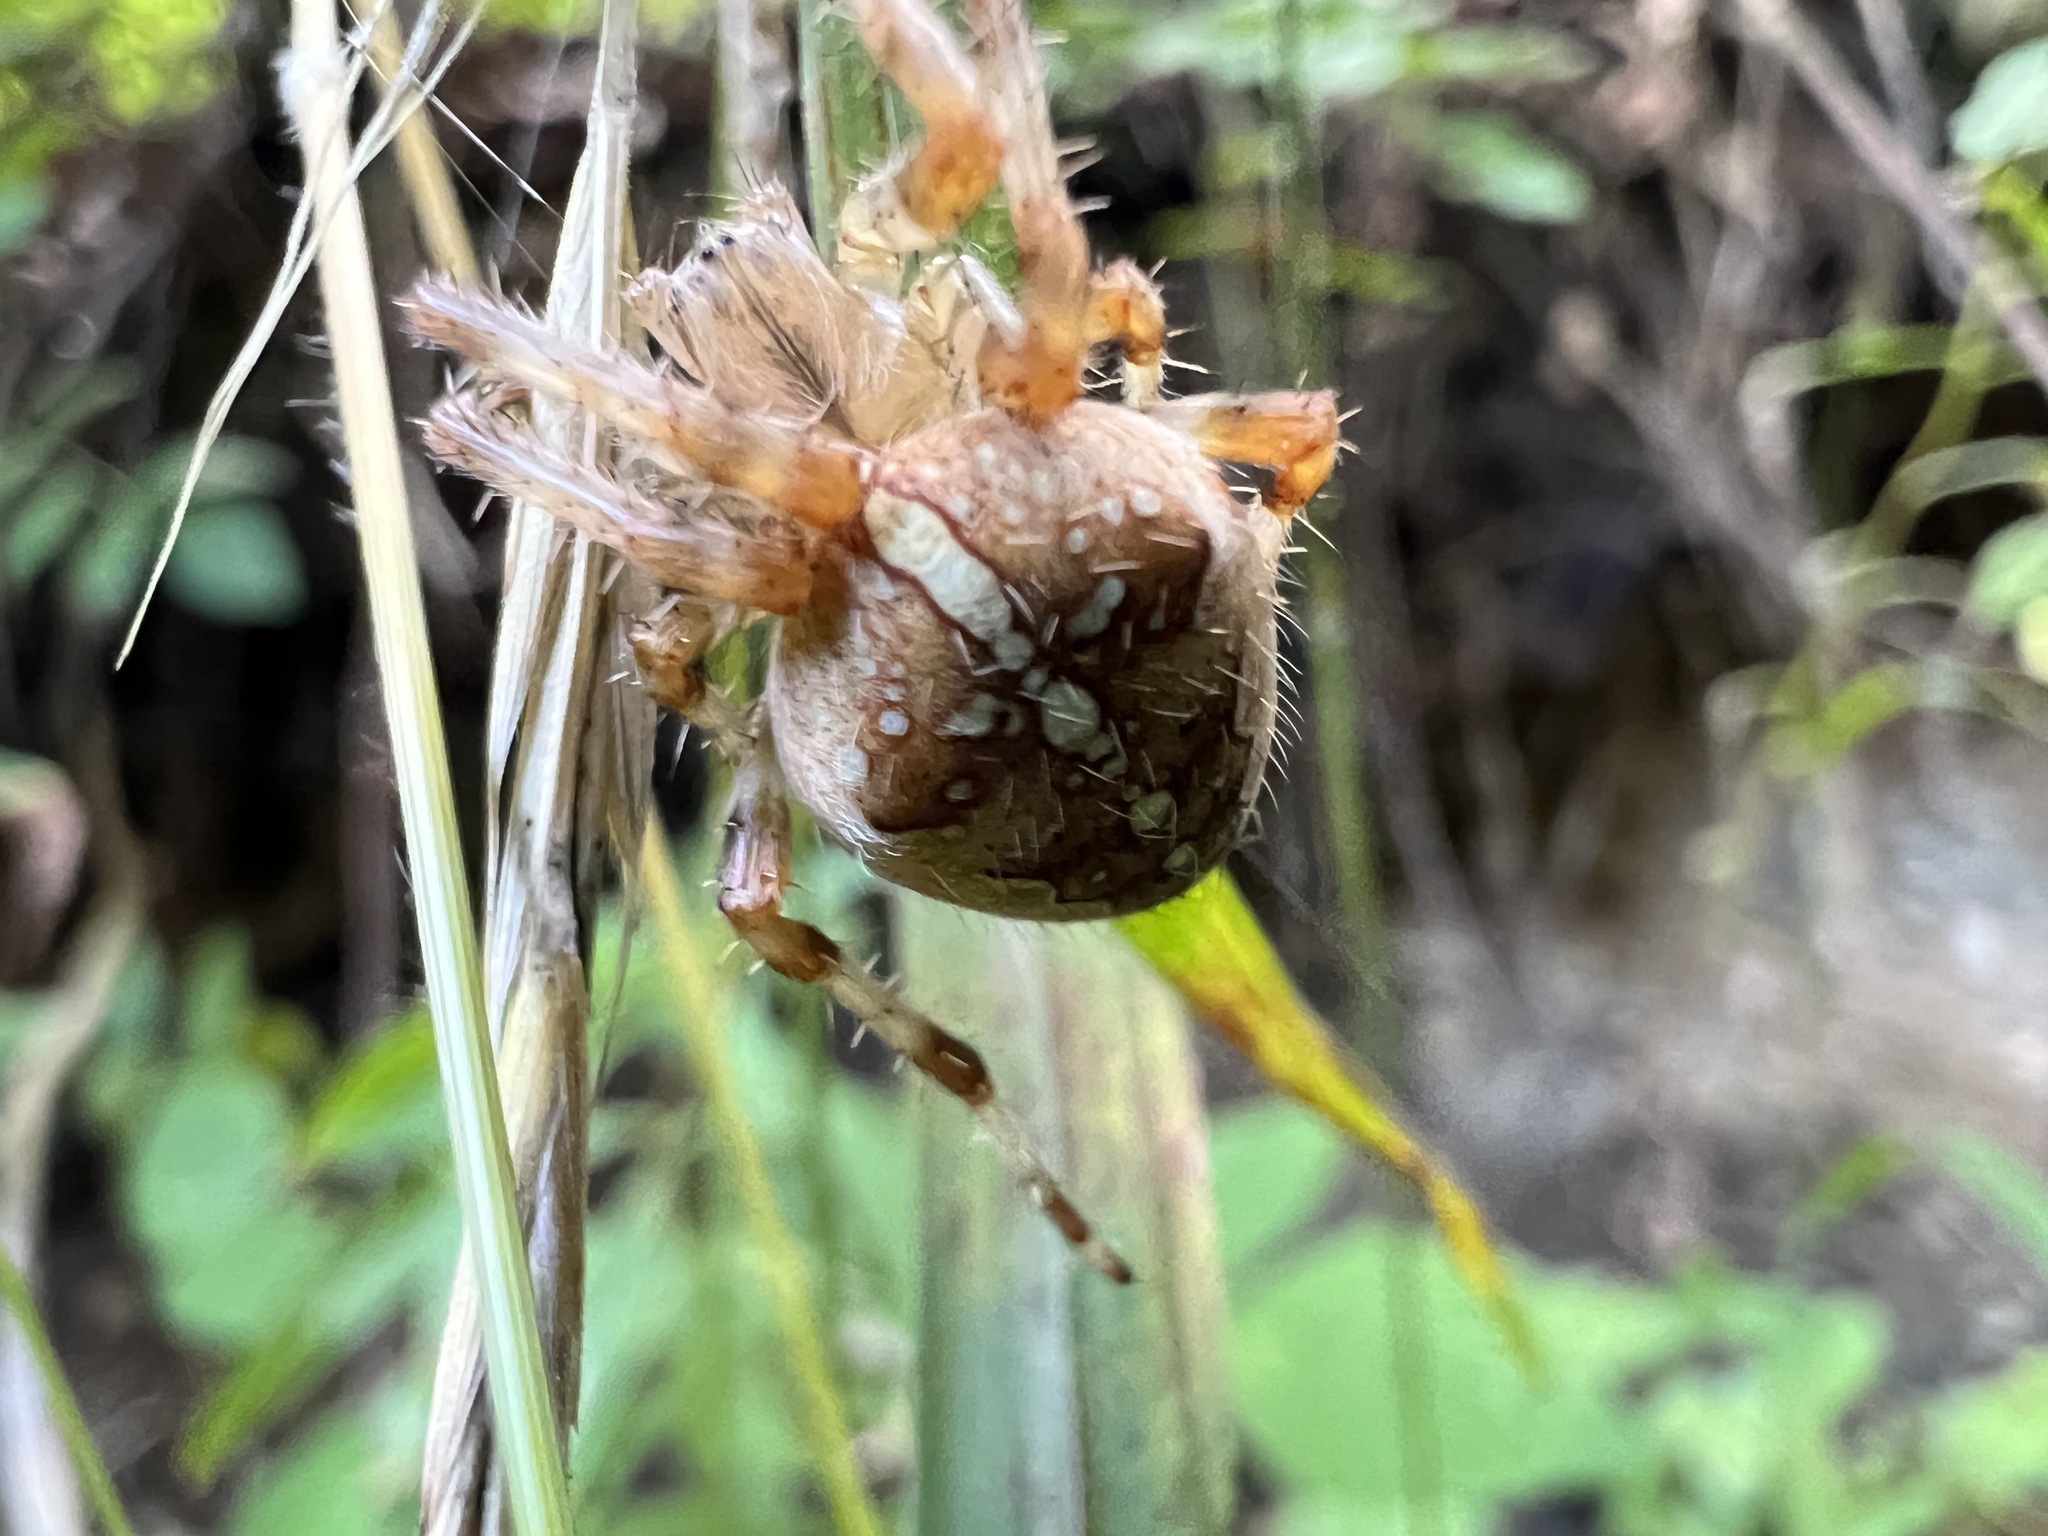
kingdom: Animalia
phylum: Arthropoda
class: Arachnida
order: Araneae
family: Araneidae
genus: Araneus
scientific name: Araneus diadematus
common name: Cross orbweaver
